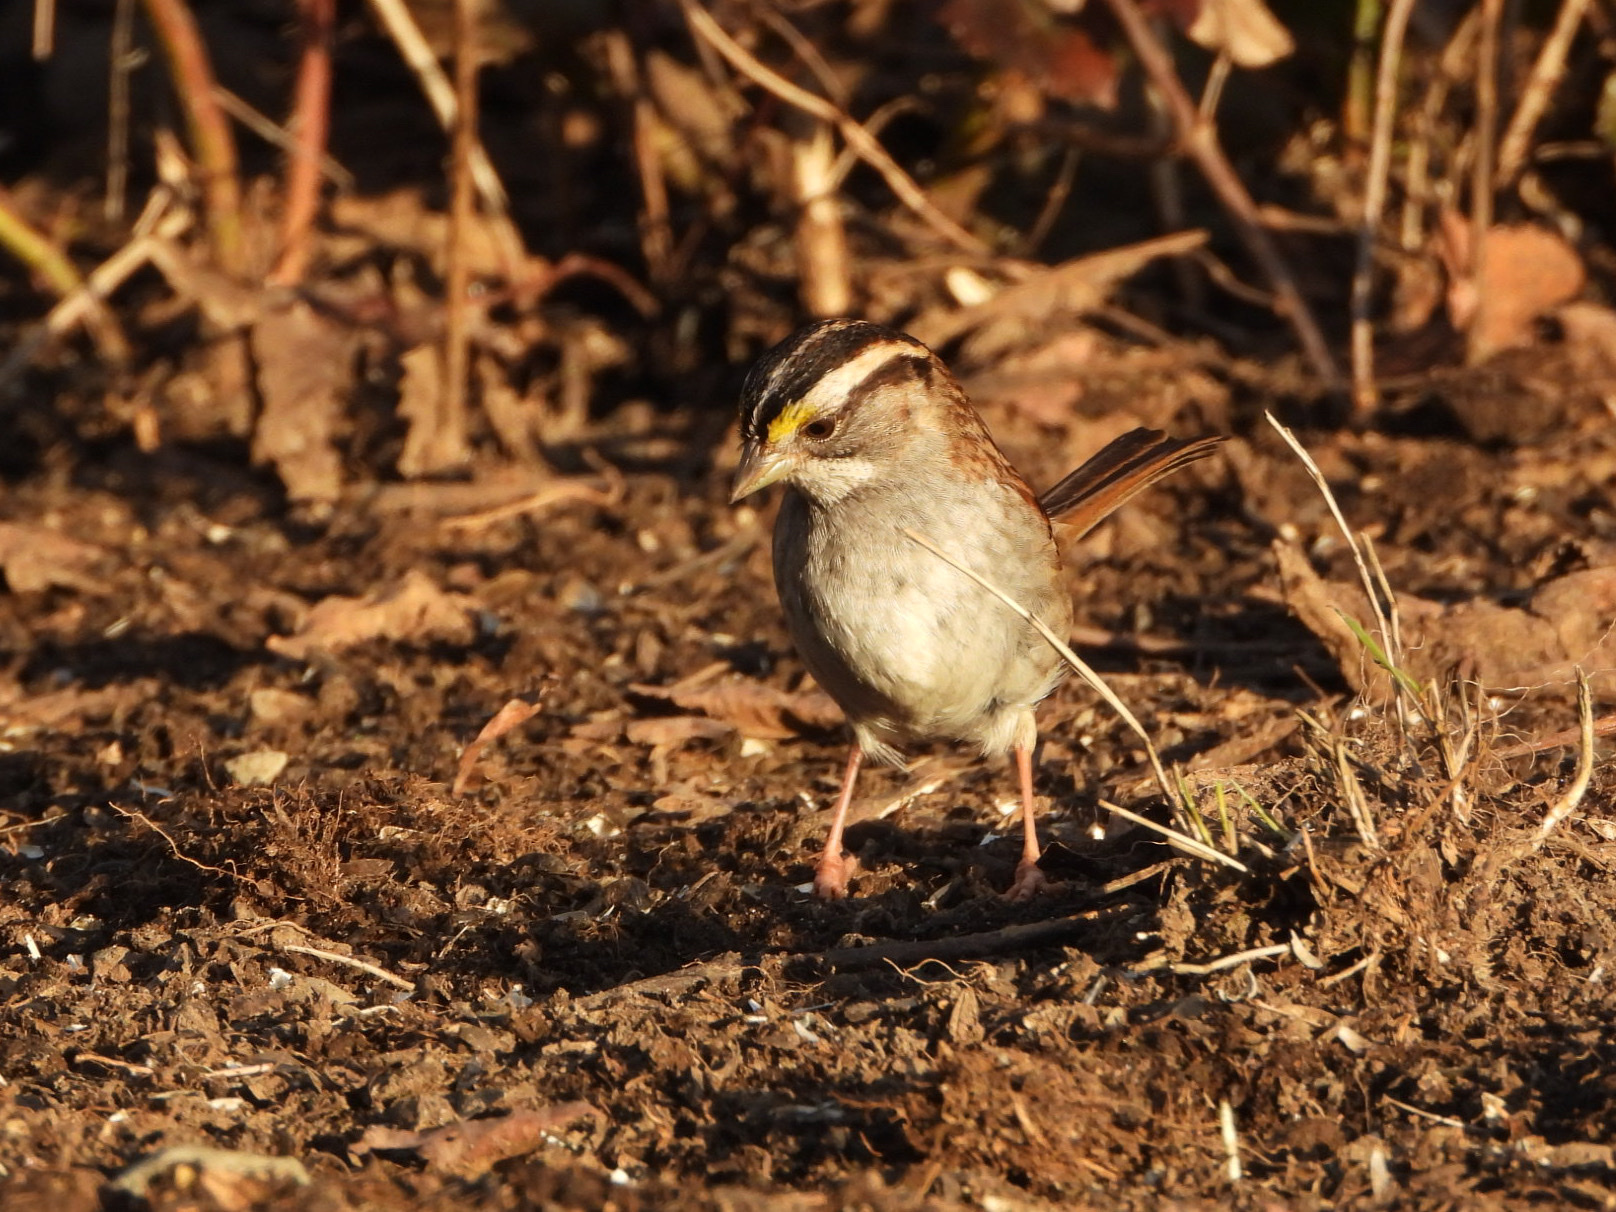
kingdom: Animalia
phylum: Chordata
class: Aves
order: Passeriformes
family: Passerellidae
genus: Zonotrichia
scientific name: Zonotrichia albicollis
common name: White-throated sparrow
